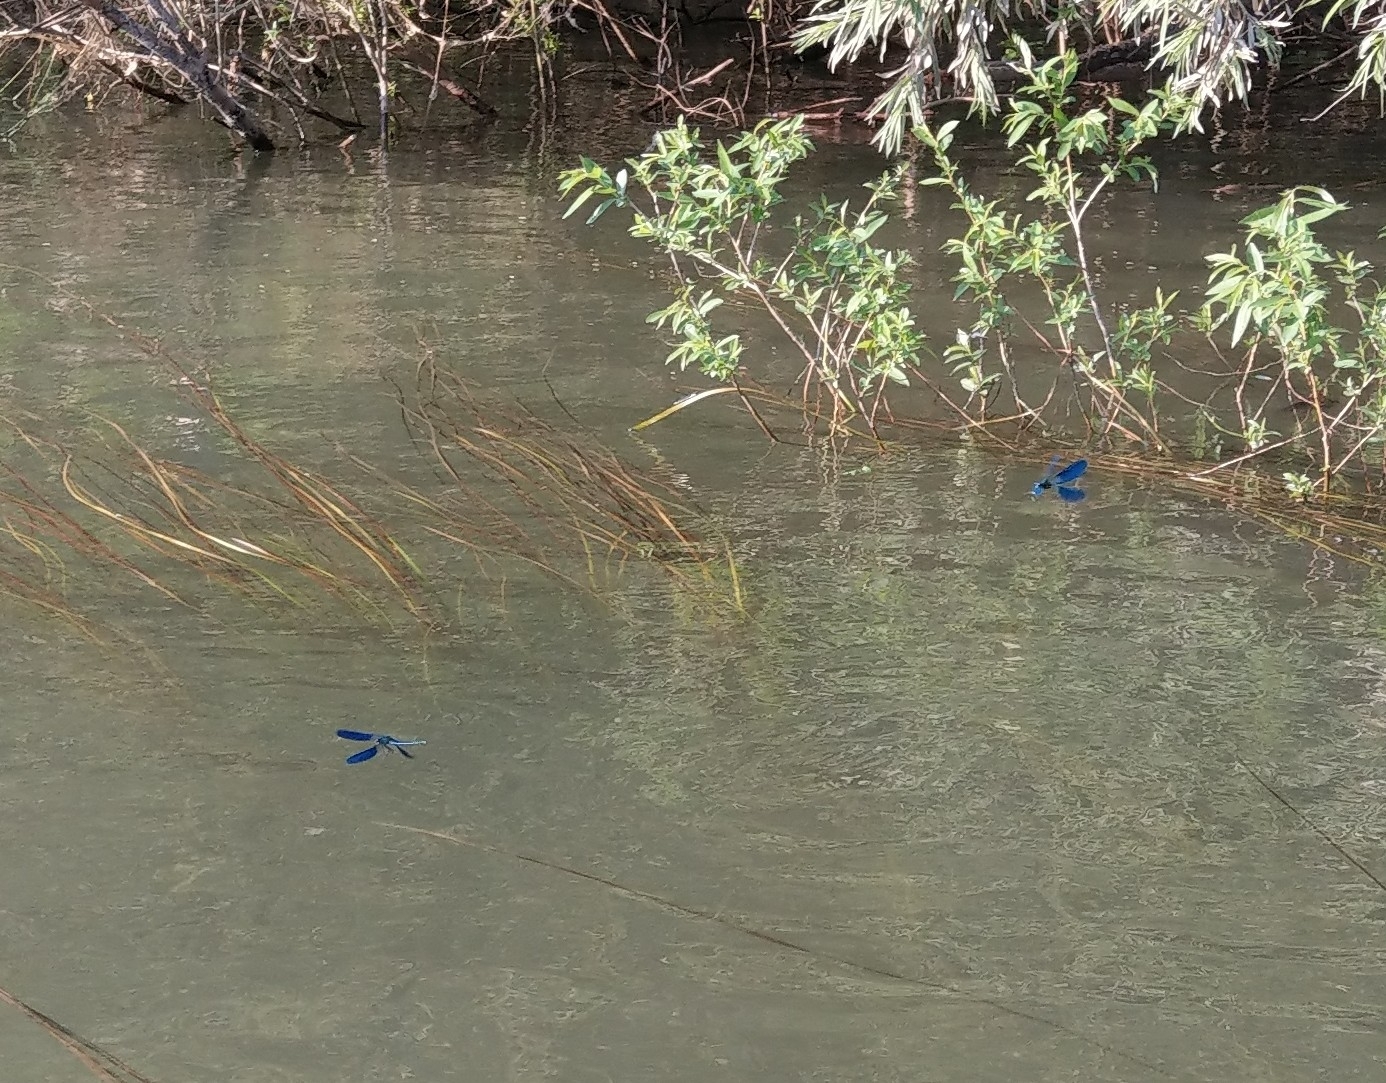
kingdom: Animalia
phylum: Arthropoda
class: Insecta
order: Odonata
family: Calopterygidae
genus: Calopteryx
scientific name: Calopteryx splendens
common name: Banded demoiselle
